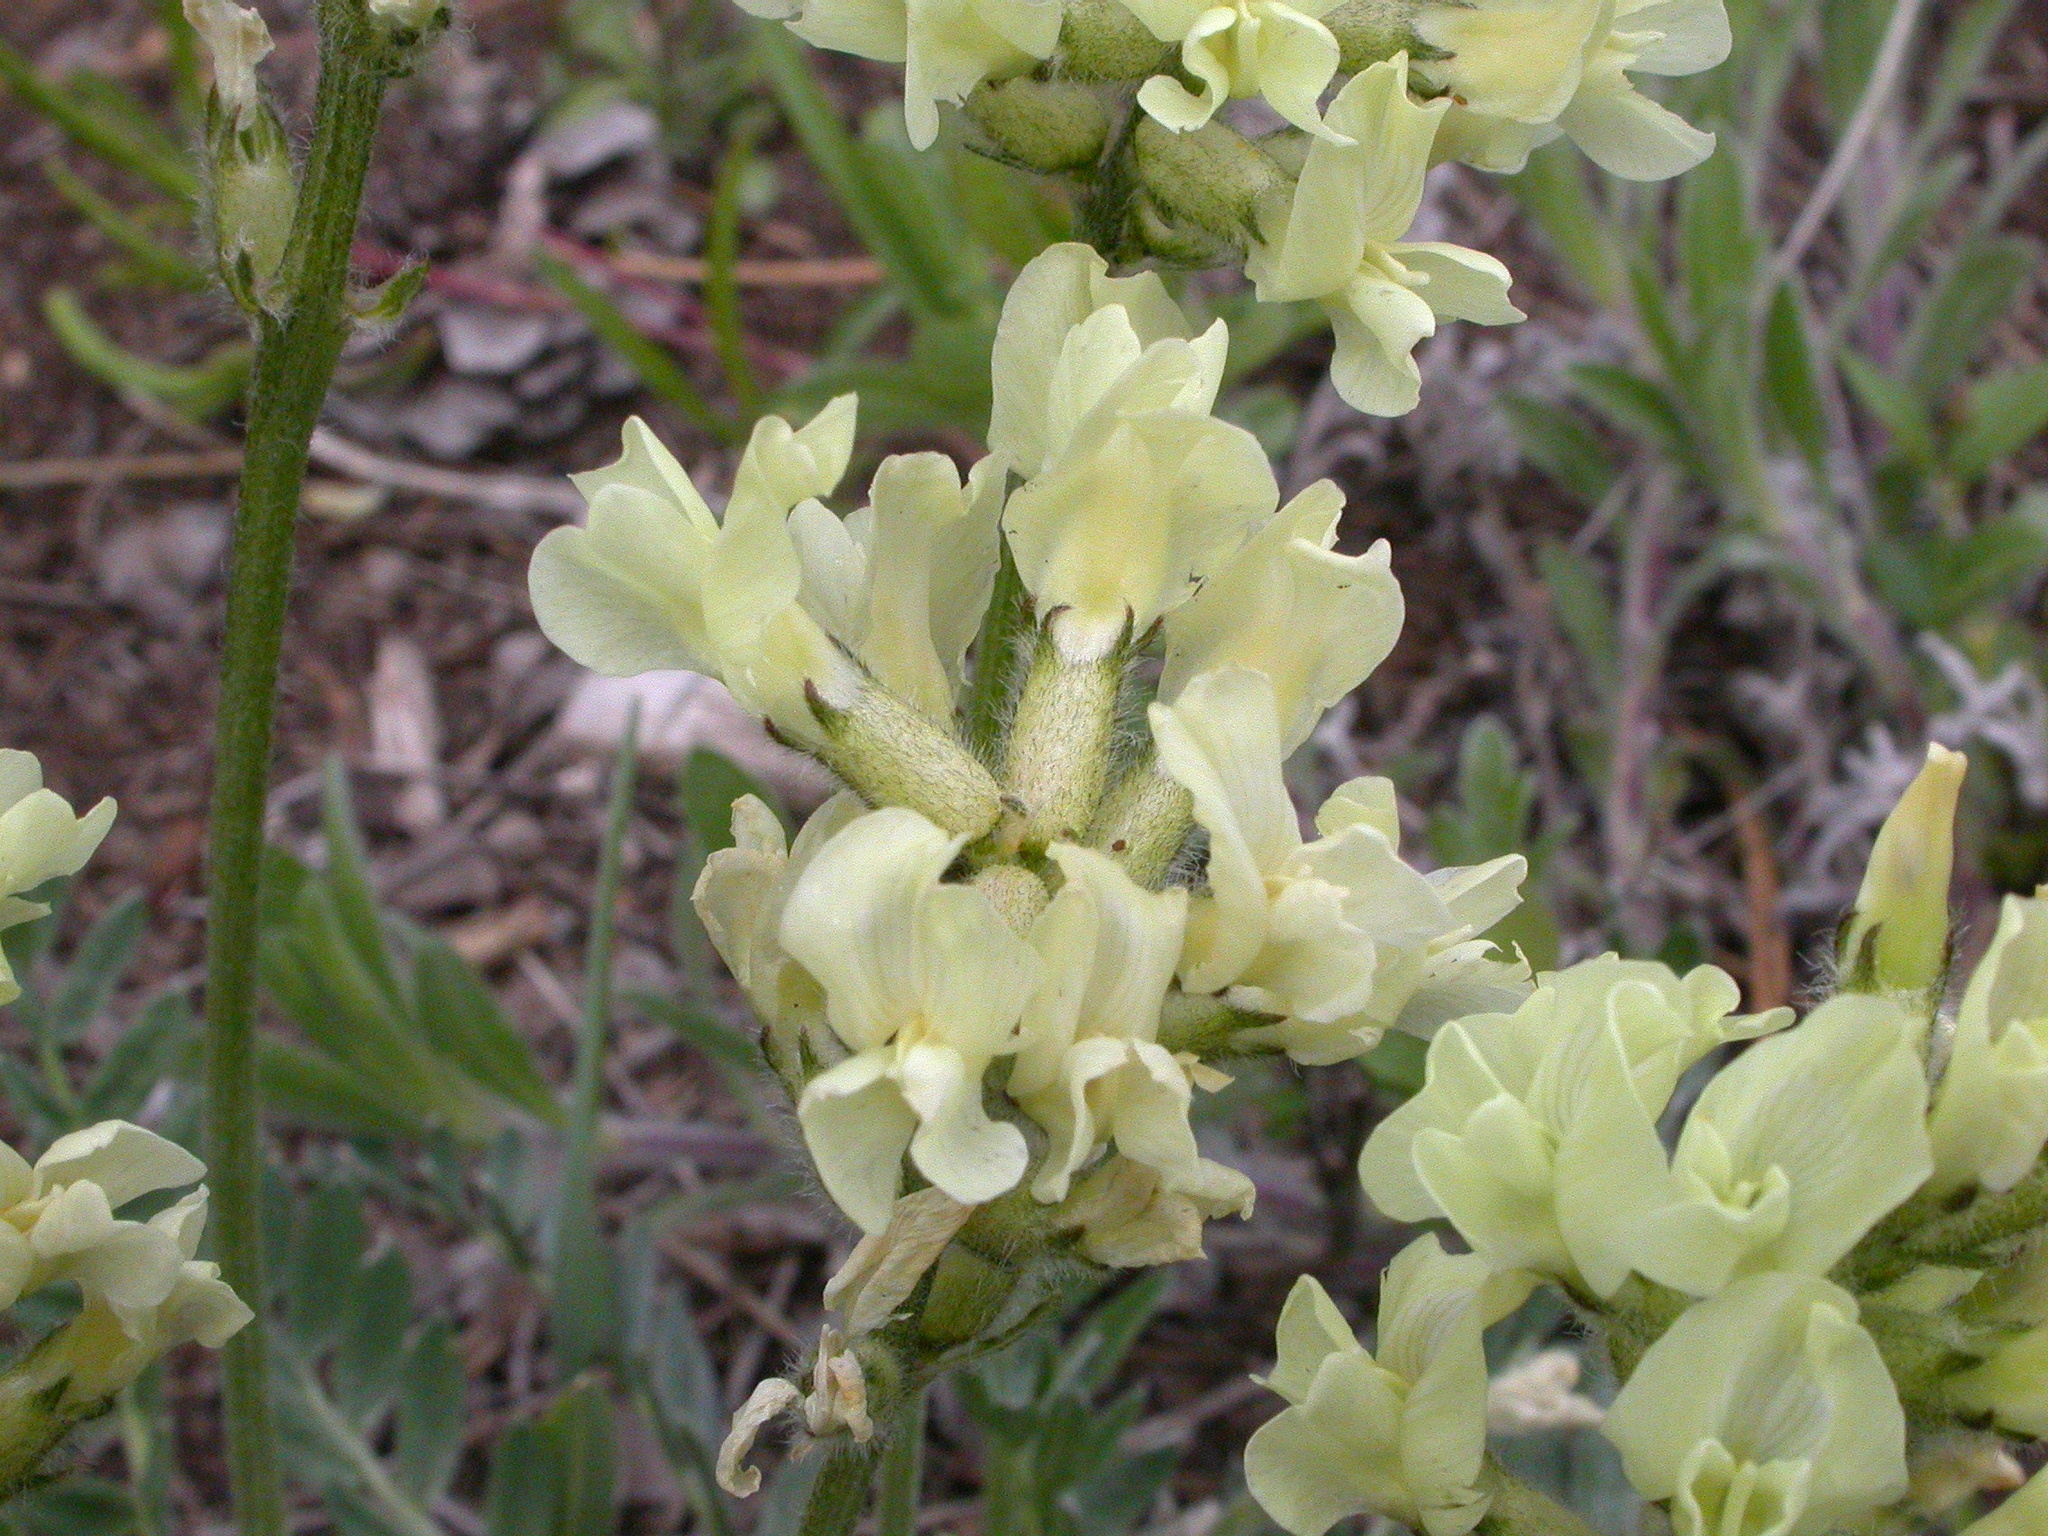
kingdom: Plantae
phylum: Tracheophyta
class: Magnoliopsida
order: Fabales
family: Fabaceae
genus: Oxytropis
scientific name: Oxytropis campestris
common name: Field locoweed
